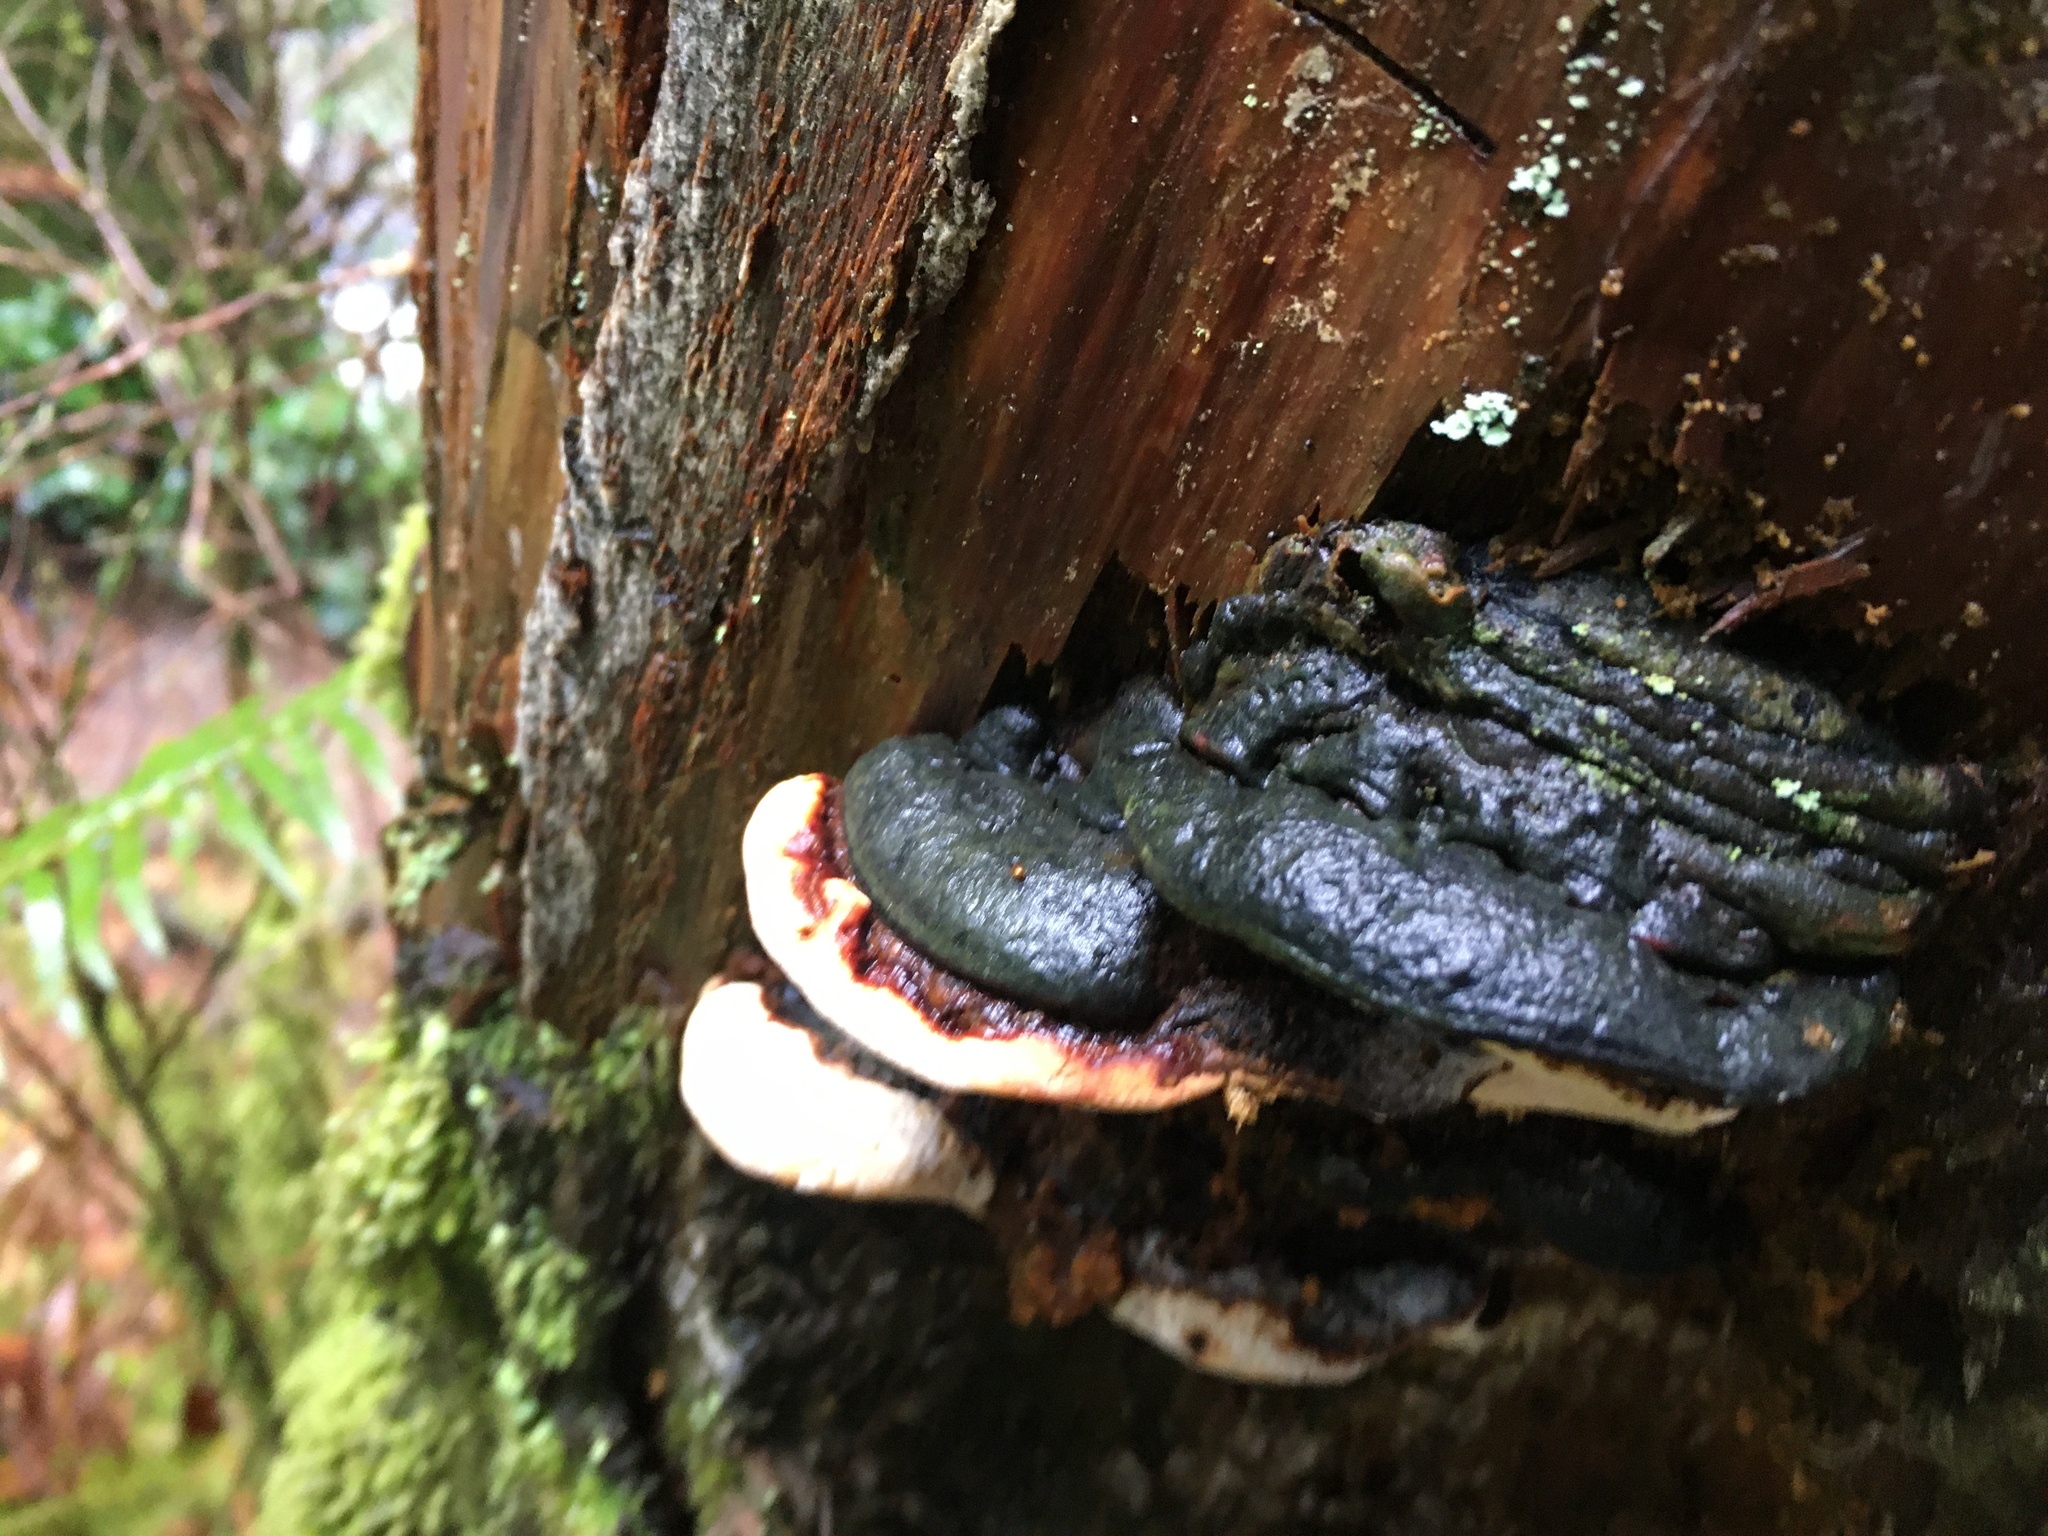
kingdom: Fungi
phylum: Basidiomycota
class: Agaricomycetes
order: Polyporales
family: Fomitopsidaceae
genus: Fomitopsis
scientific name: Fomitopsis mounceae
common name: Northern red belt
